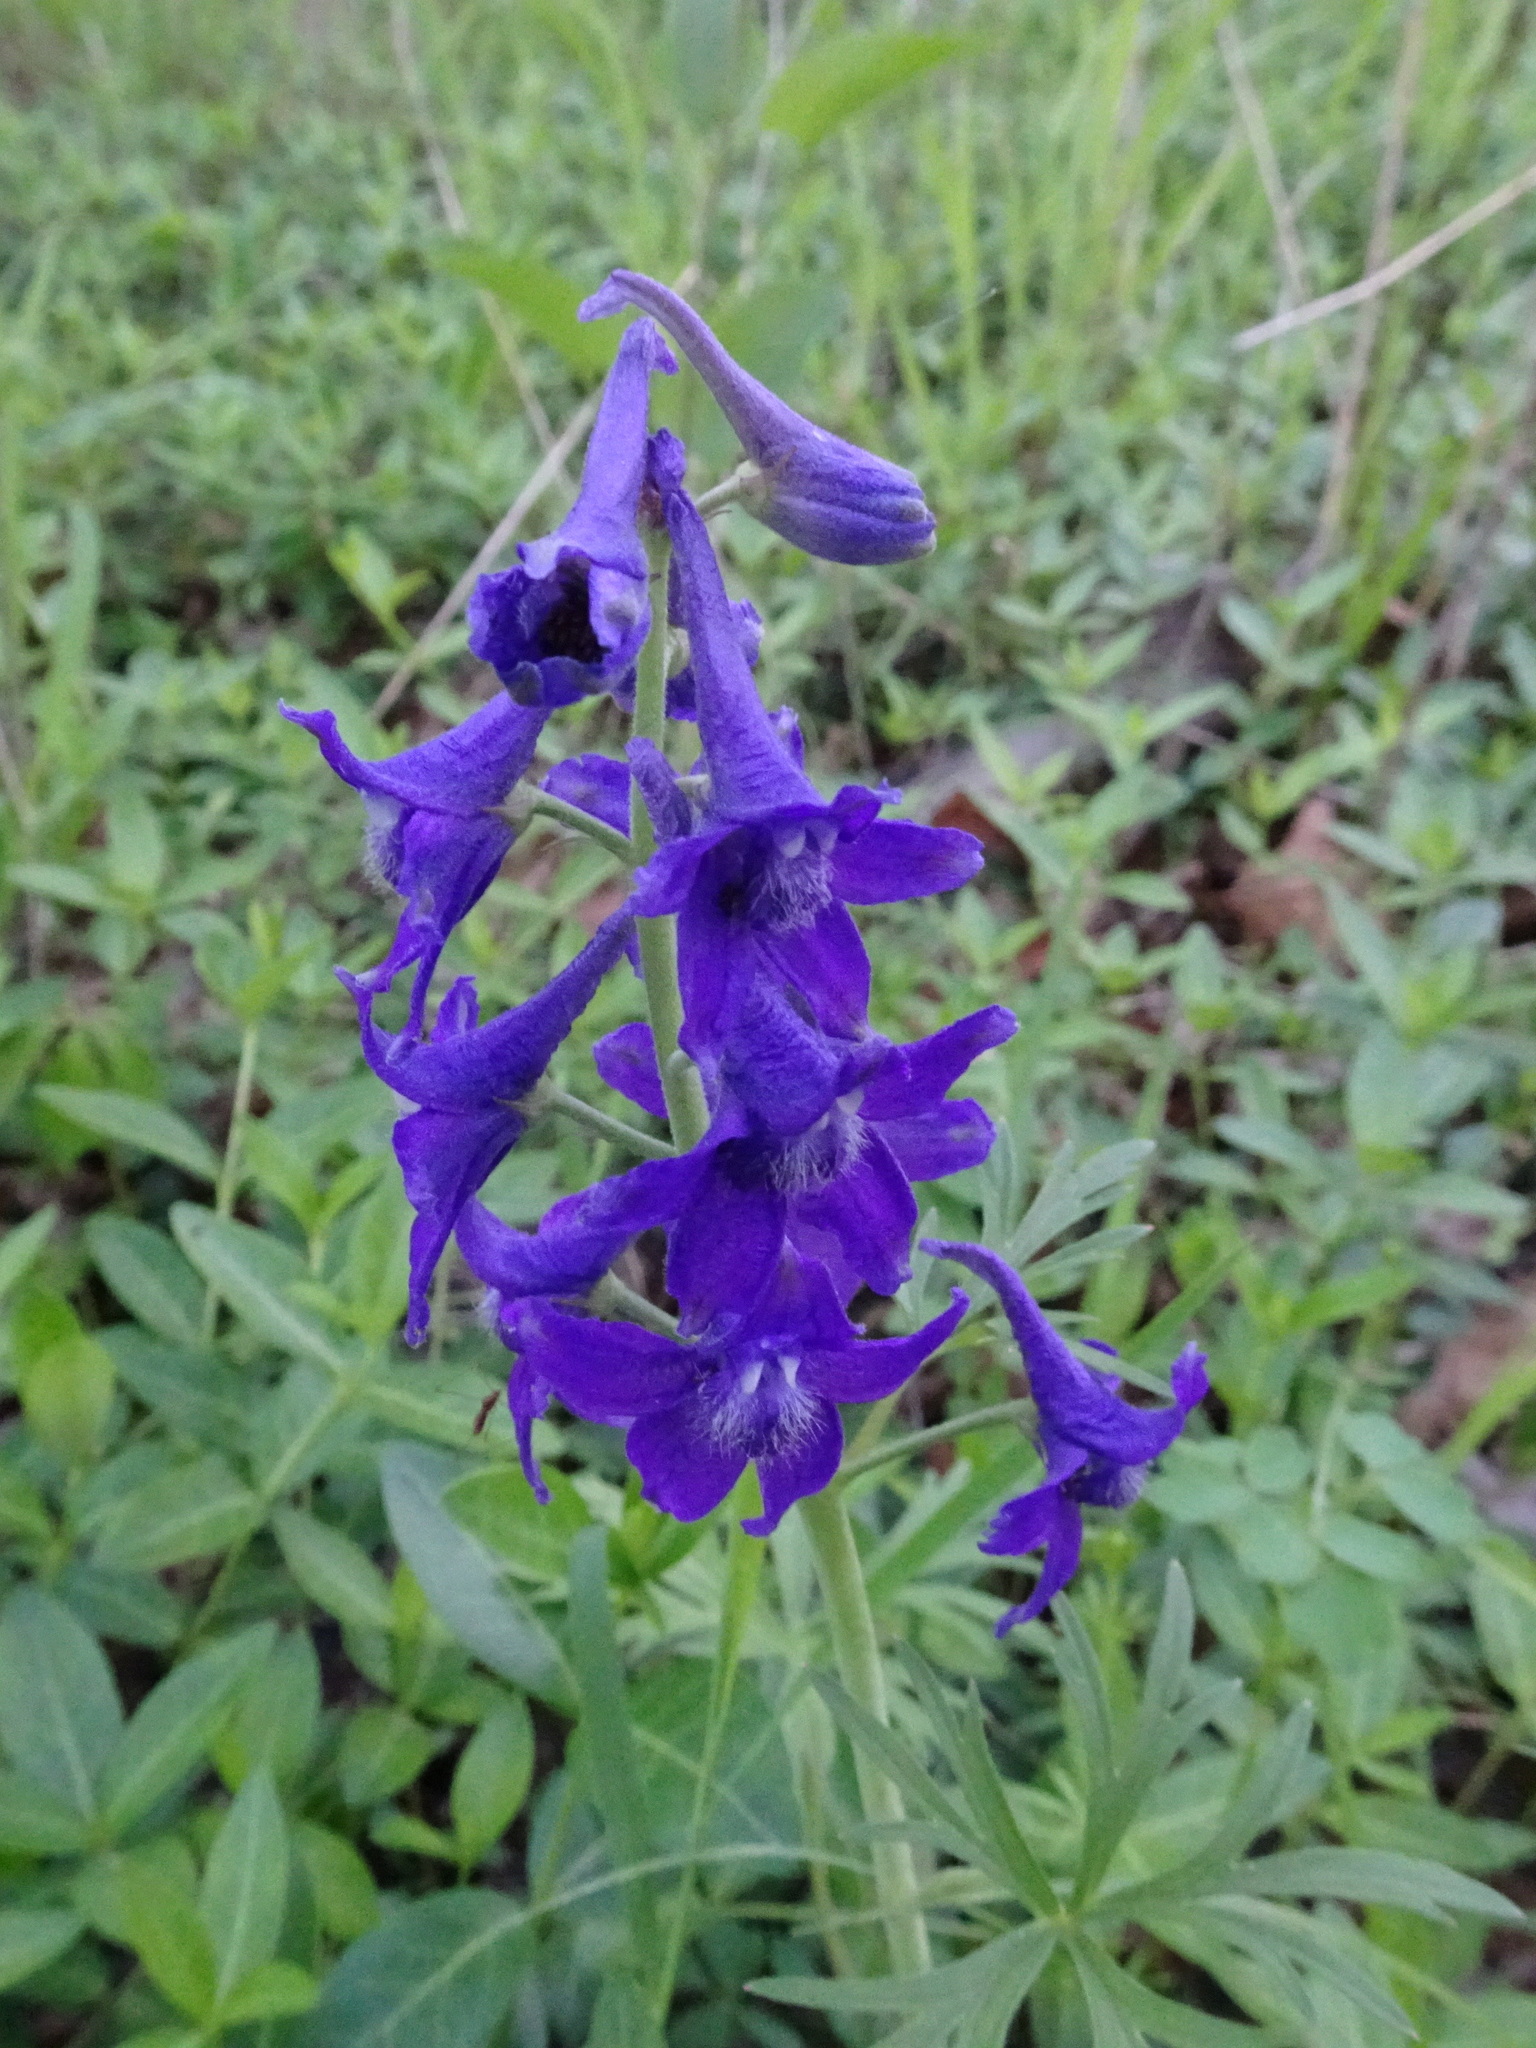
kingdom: Plantae
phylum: Tracheophyta
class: Magnoliopsida
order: Ranunculales
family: Ranunculaceae
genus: Delphinium
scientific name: Delphinium tricorne
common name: Dwarf larkspur
